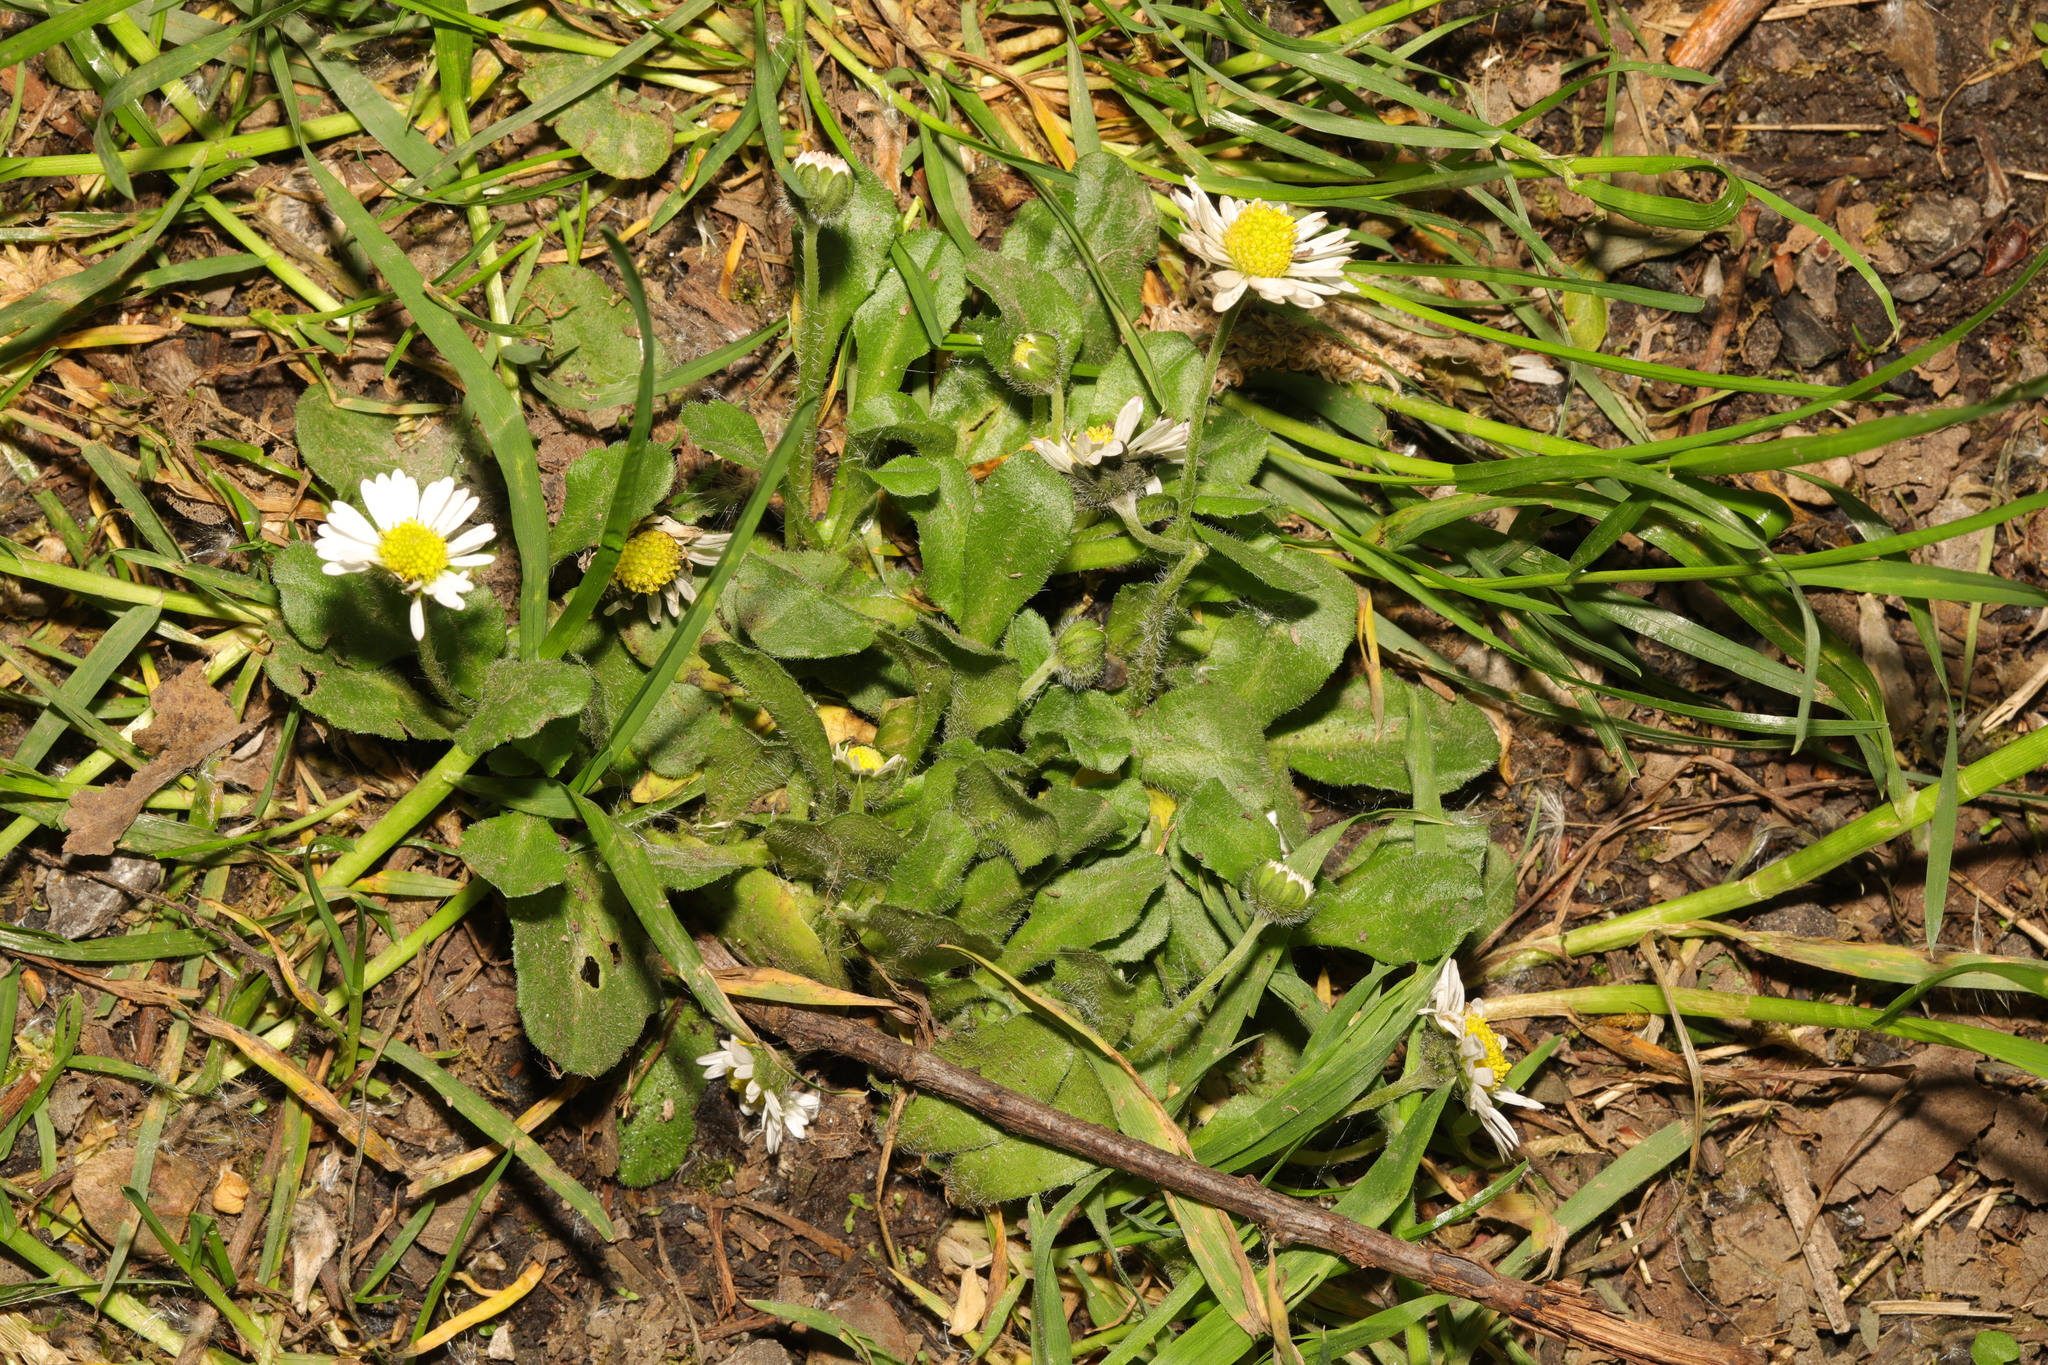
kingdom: Plantae
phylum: Tracheophyta
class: Magnoliopsida
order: Asterales
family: Asteraceae
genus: Bellis
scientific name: Bellis perennis
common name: Lawndaisy
